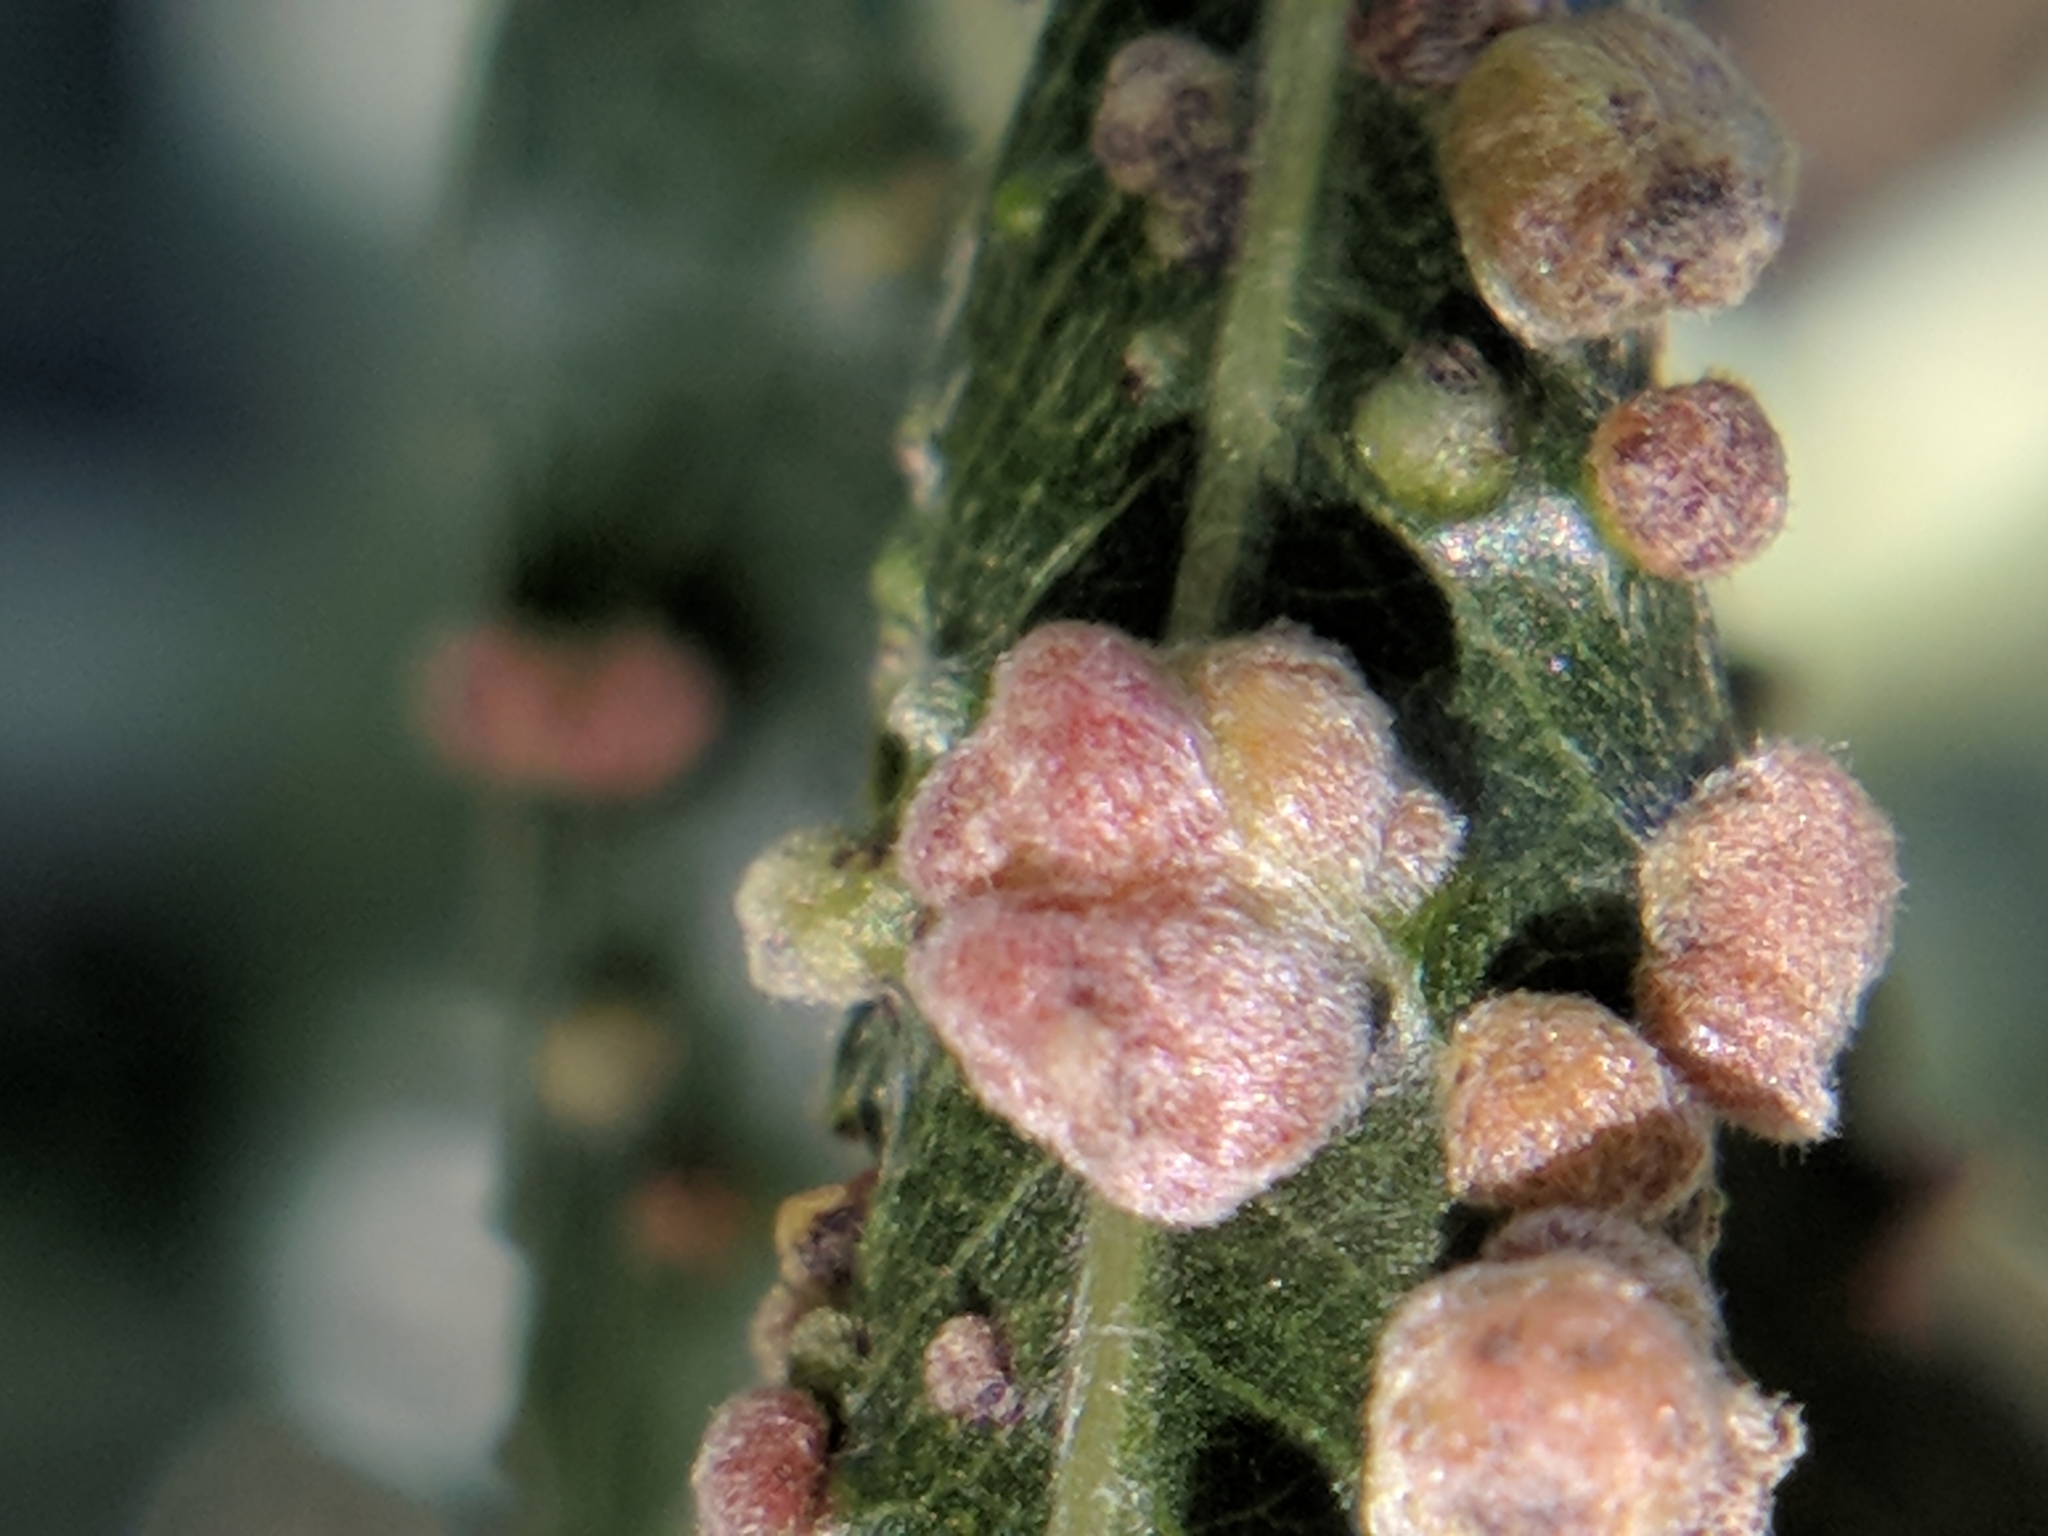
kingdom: Animalia
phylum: Arthropoda
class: Arachnida
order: Trombidiformes
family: Eriophyidae
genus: Aculus
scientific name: Aculus tetanothrix
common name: Willow bead gall mite
